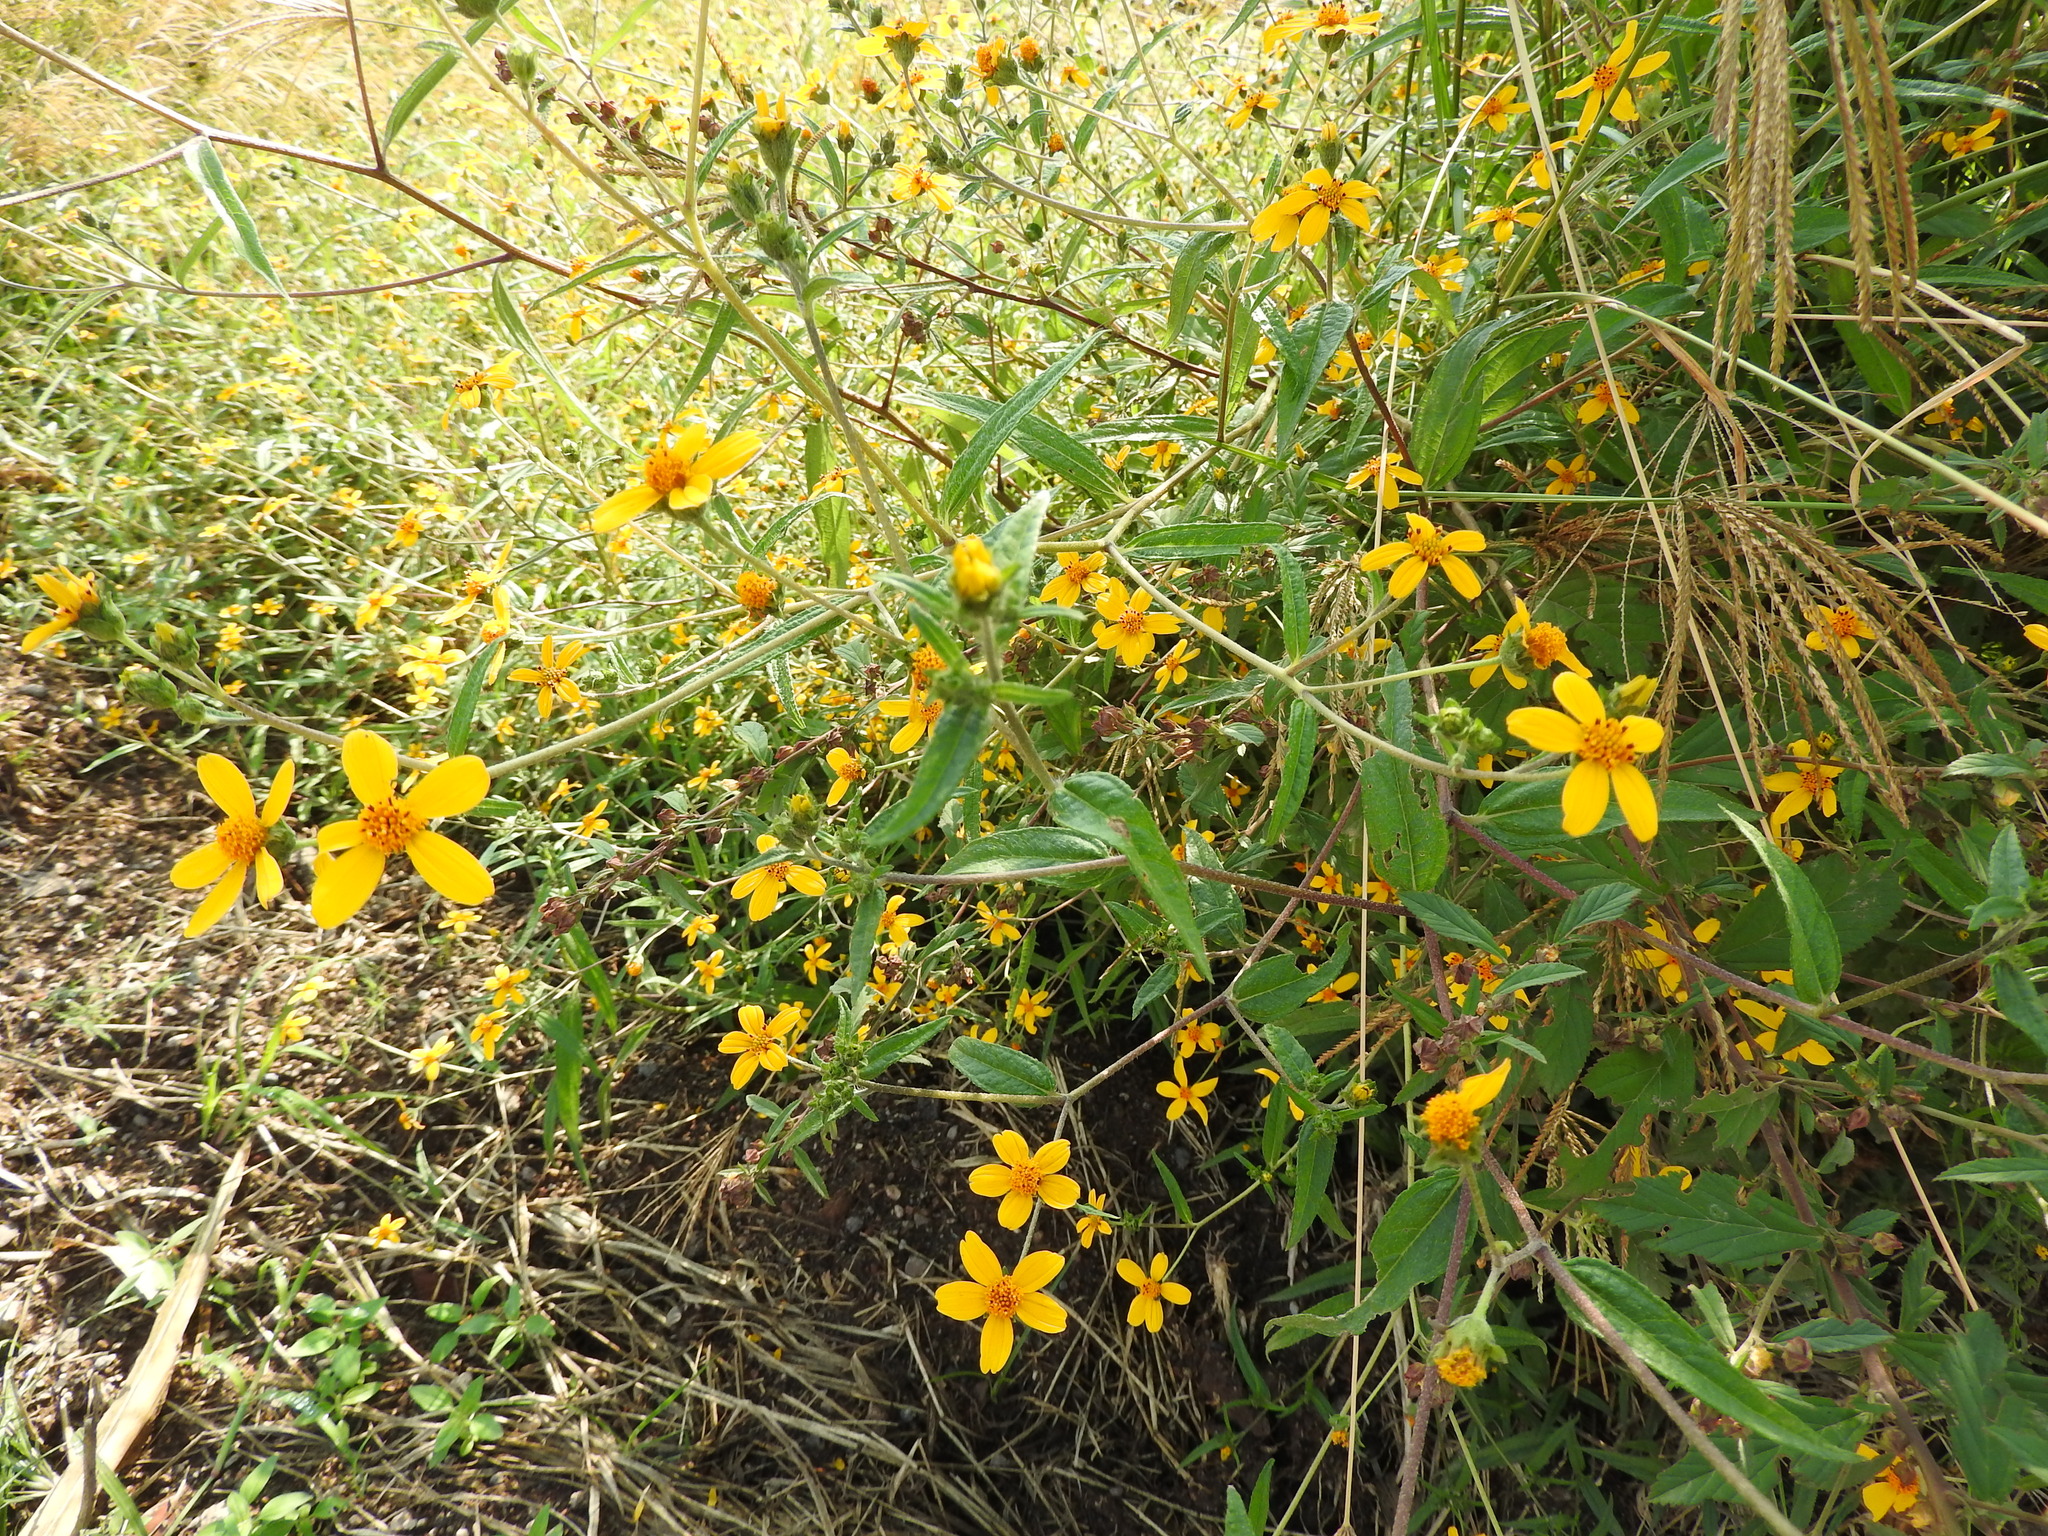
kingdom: Plantae
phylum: Tracheophyta
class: Magnoliopsida
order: Asterales
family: Asteraceae
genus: Aldama
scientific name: Aldama dentata
